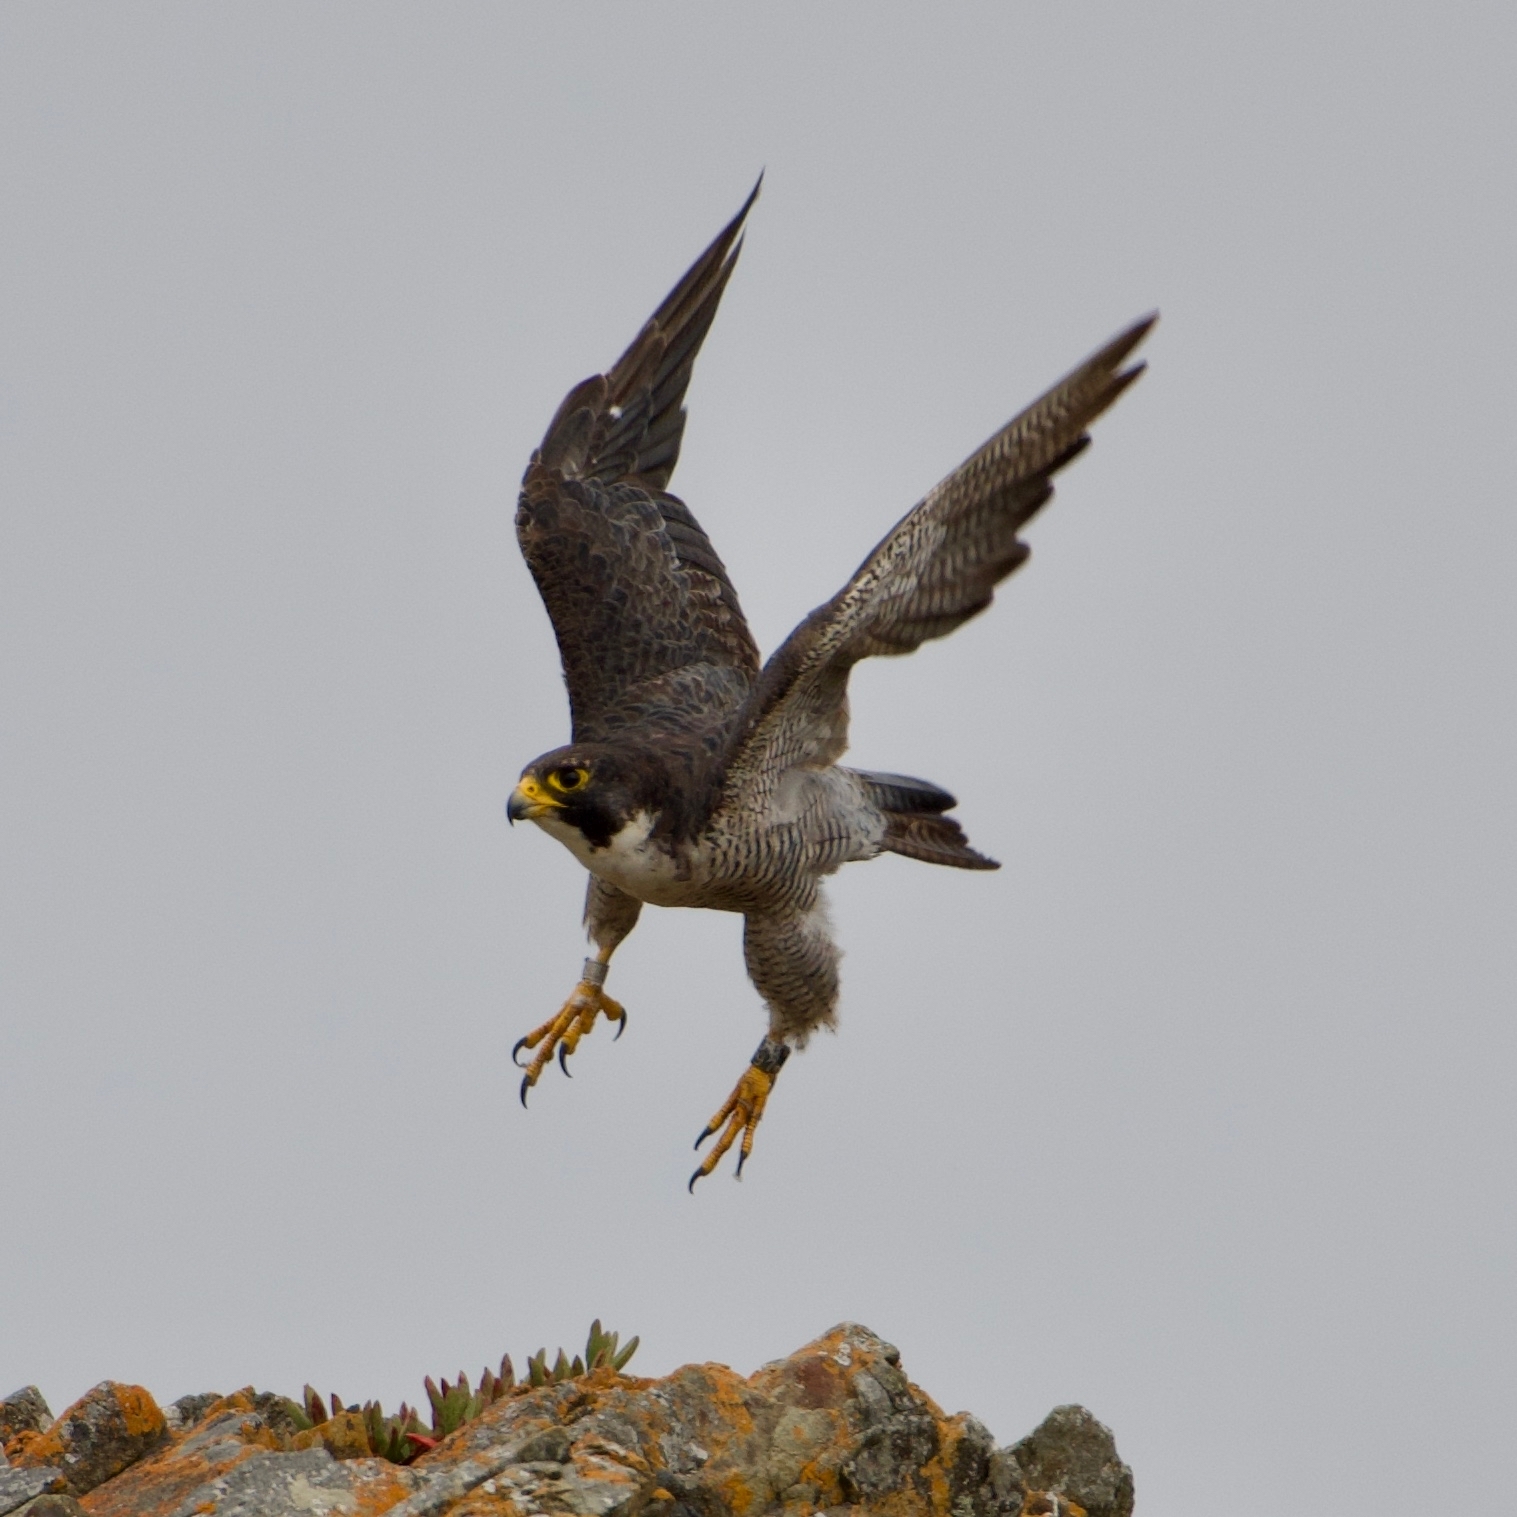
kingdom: Animalia
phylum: Chordata
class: Aves
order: Falconiformes
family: Falconidae
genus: Falco
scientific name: Falco peregrinus
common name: Peregrine falcon
